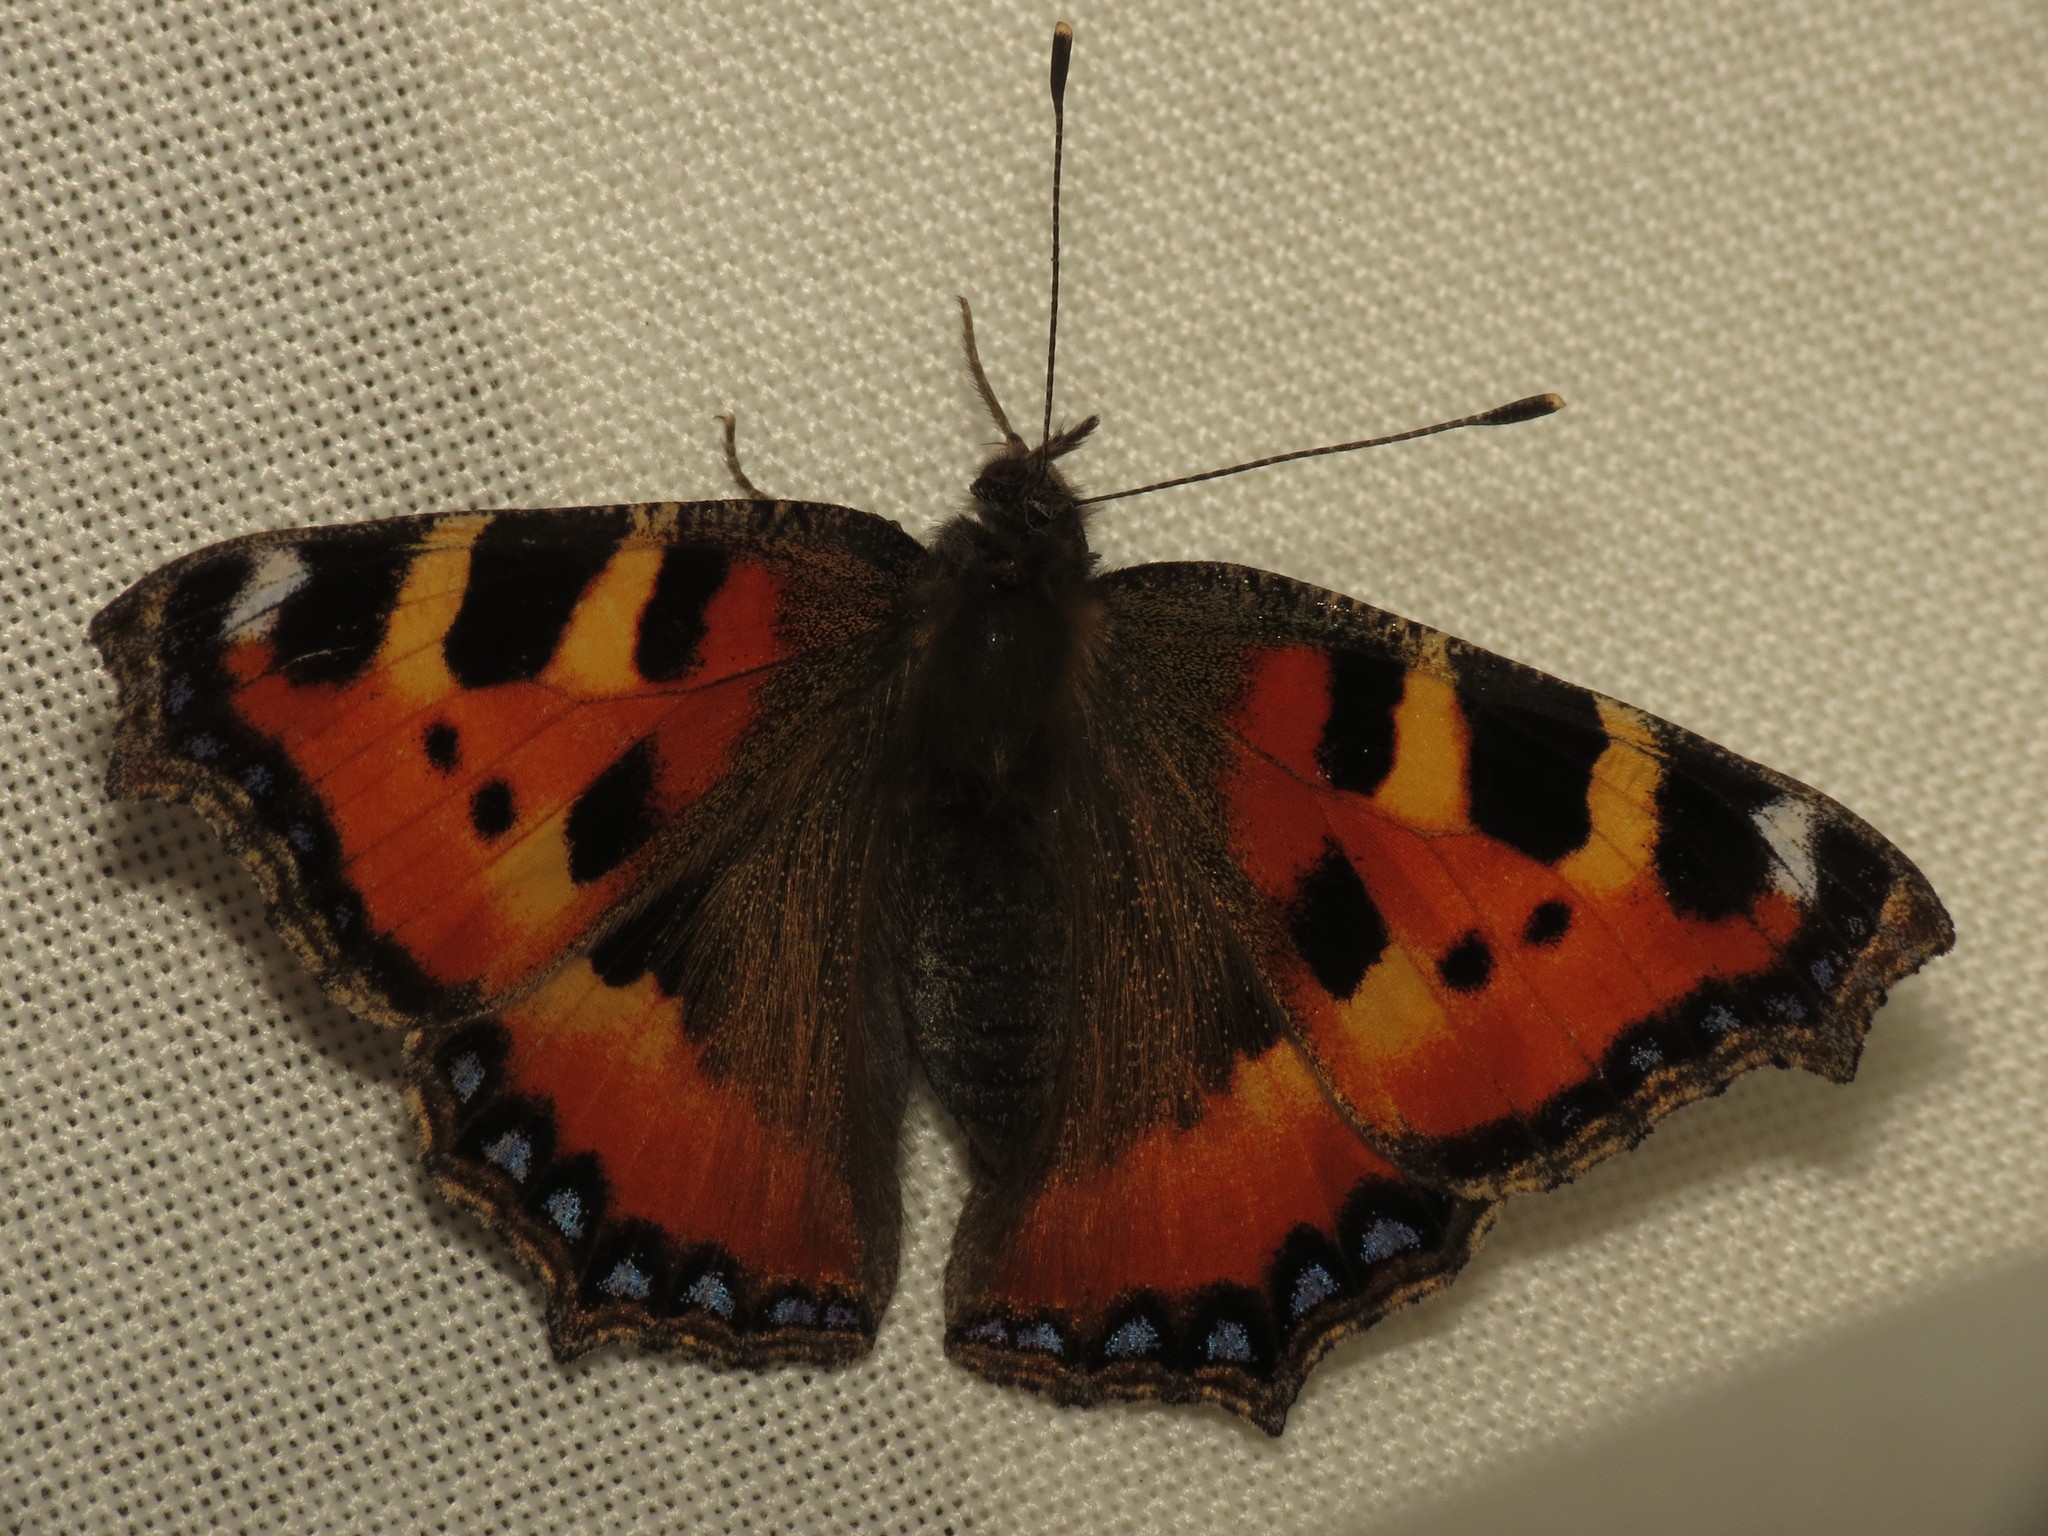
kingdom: Animalia
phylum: Arthropoda
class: Insecta
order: Lepidoptera
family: Nymphalidae
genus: Aglais
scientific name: Aglais urticae
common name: Small tortoiseshell
